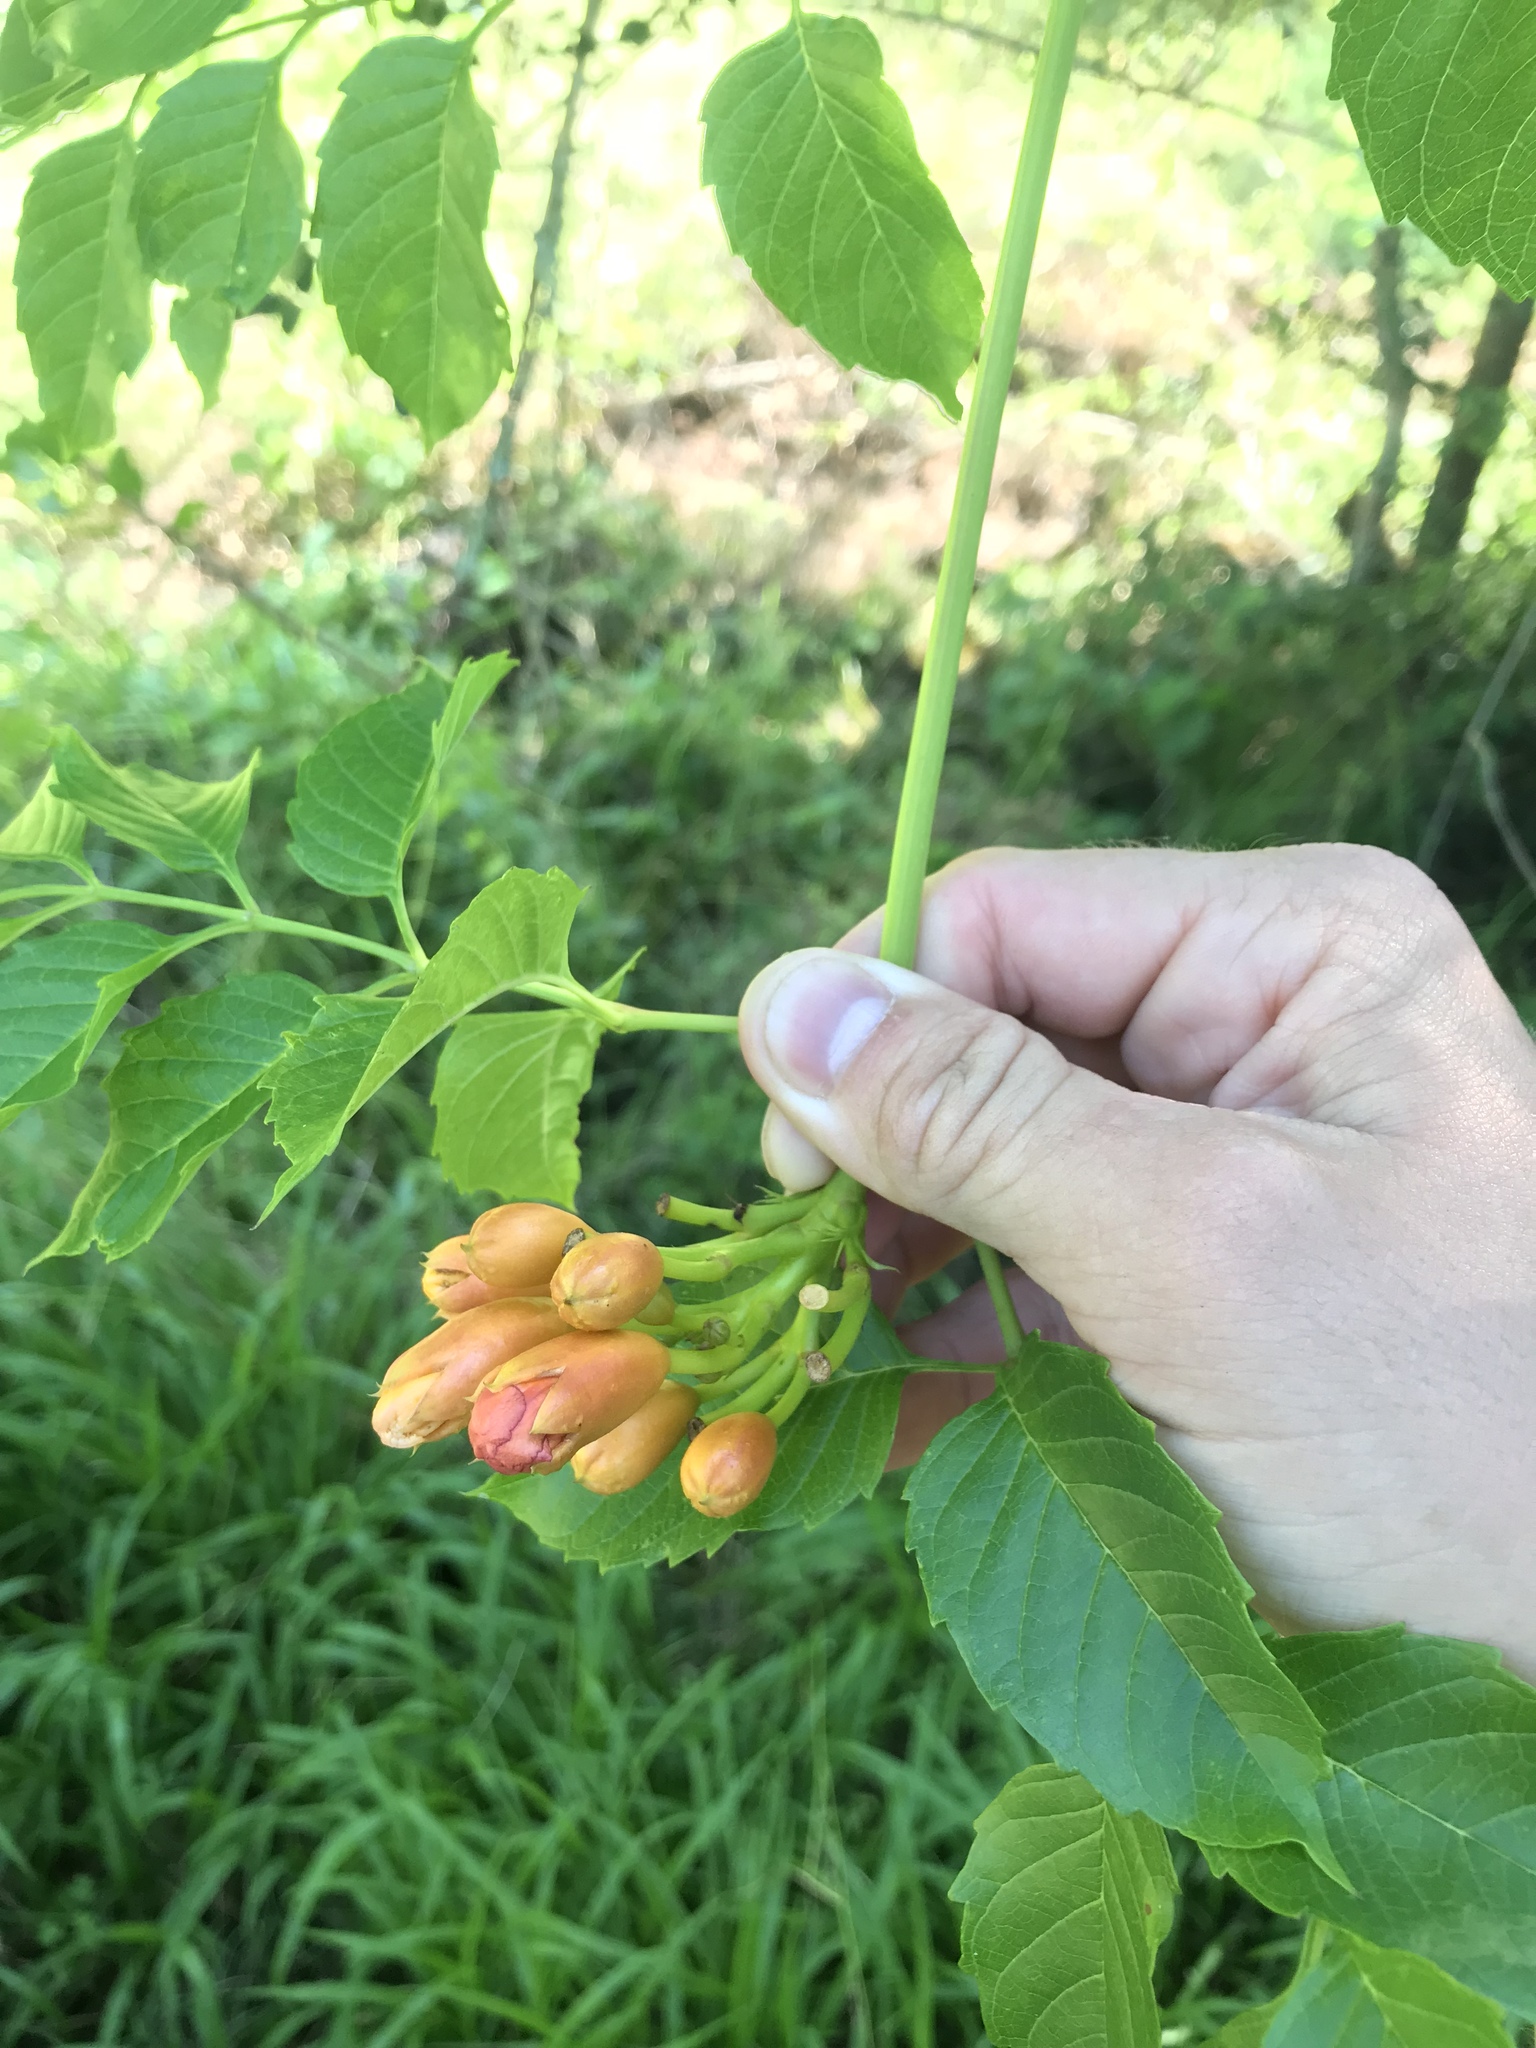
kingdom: Plantae
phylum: Tracheophyta
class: Magnoliopsida
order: Lamiales
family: Bignoniaceae
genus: Campsis
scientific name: Campsis radicans
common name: Trumpet-creeper
